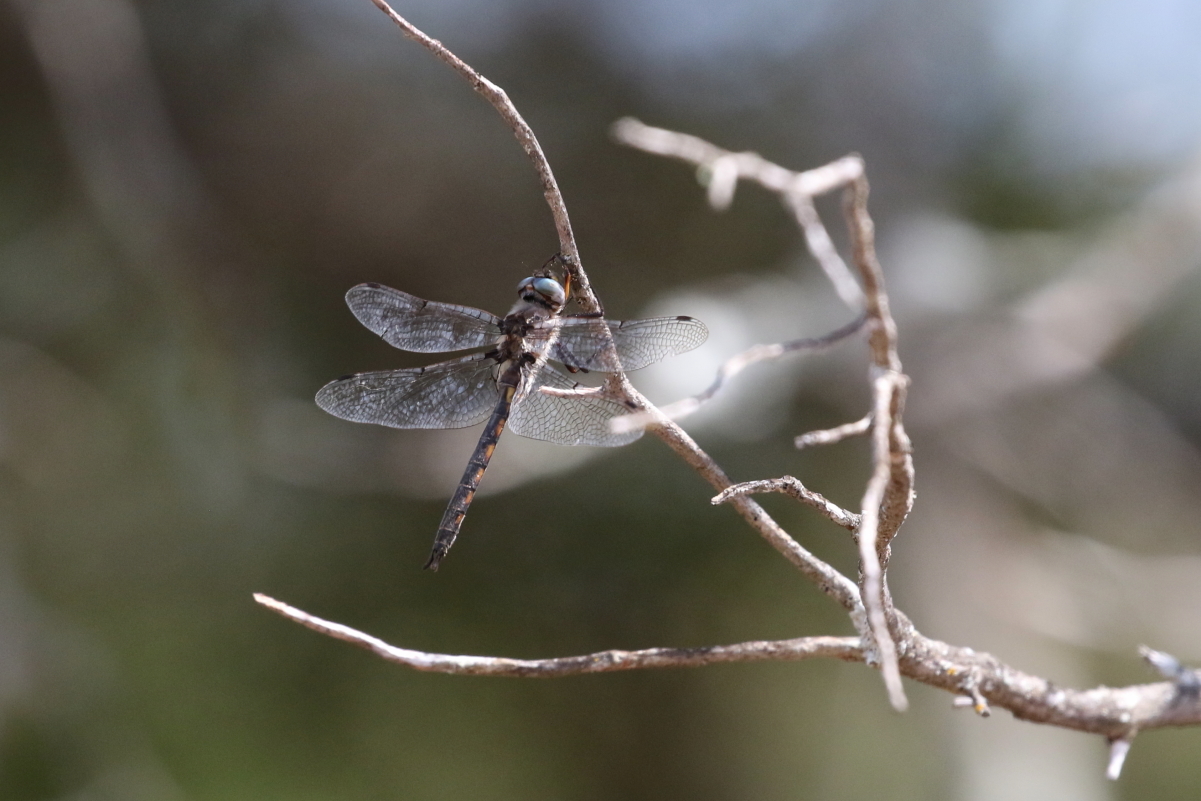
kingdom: Animalia
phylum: Arthropoda
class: Insecta
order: Odonata
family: Corduliidae
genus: Epitheca
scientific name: Epitheca petechialis
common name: Dot-winged baskettail
